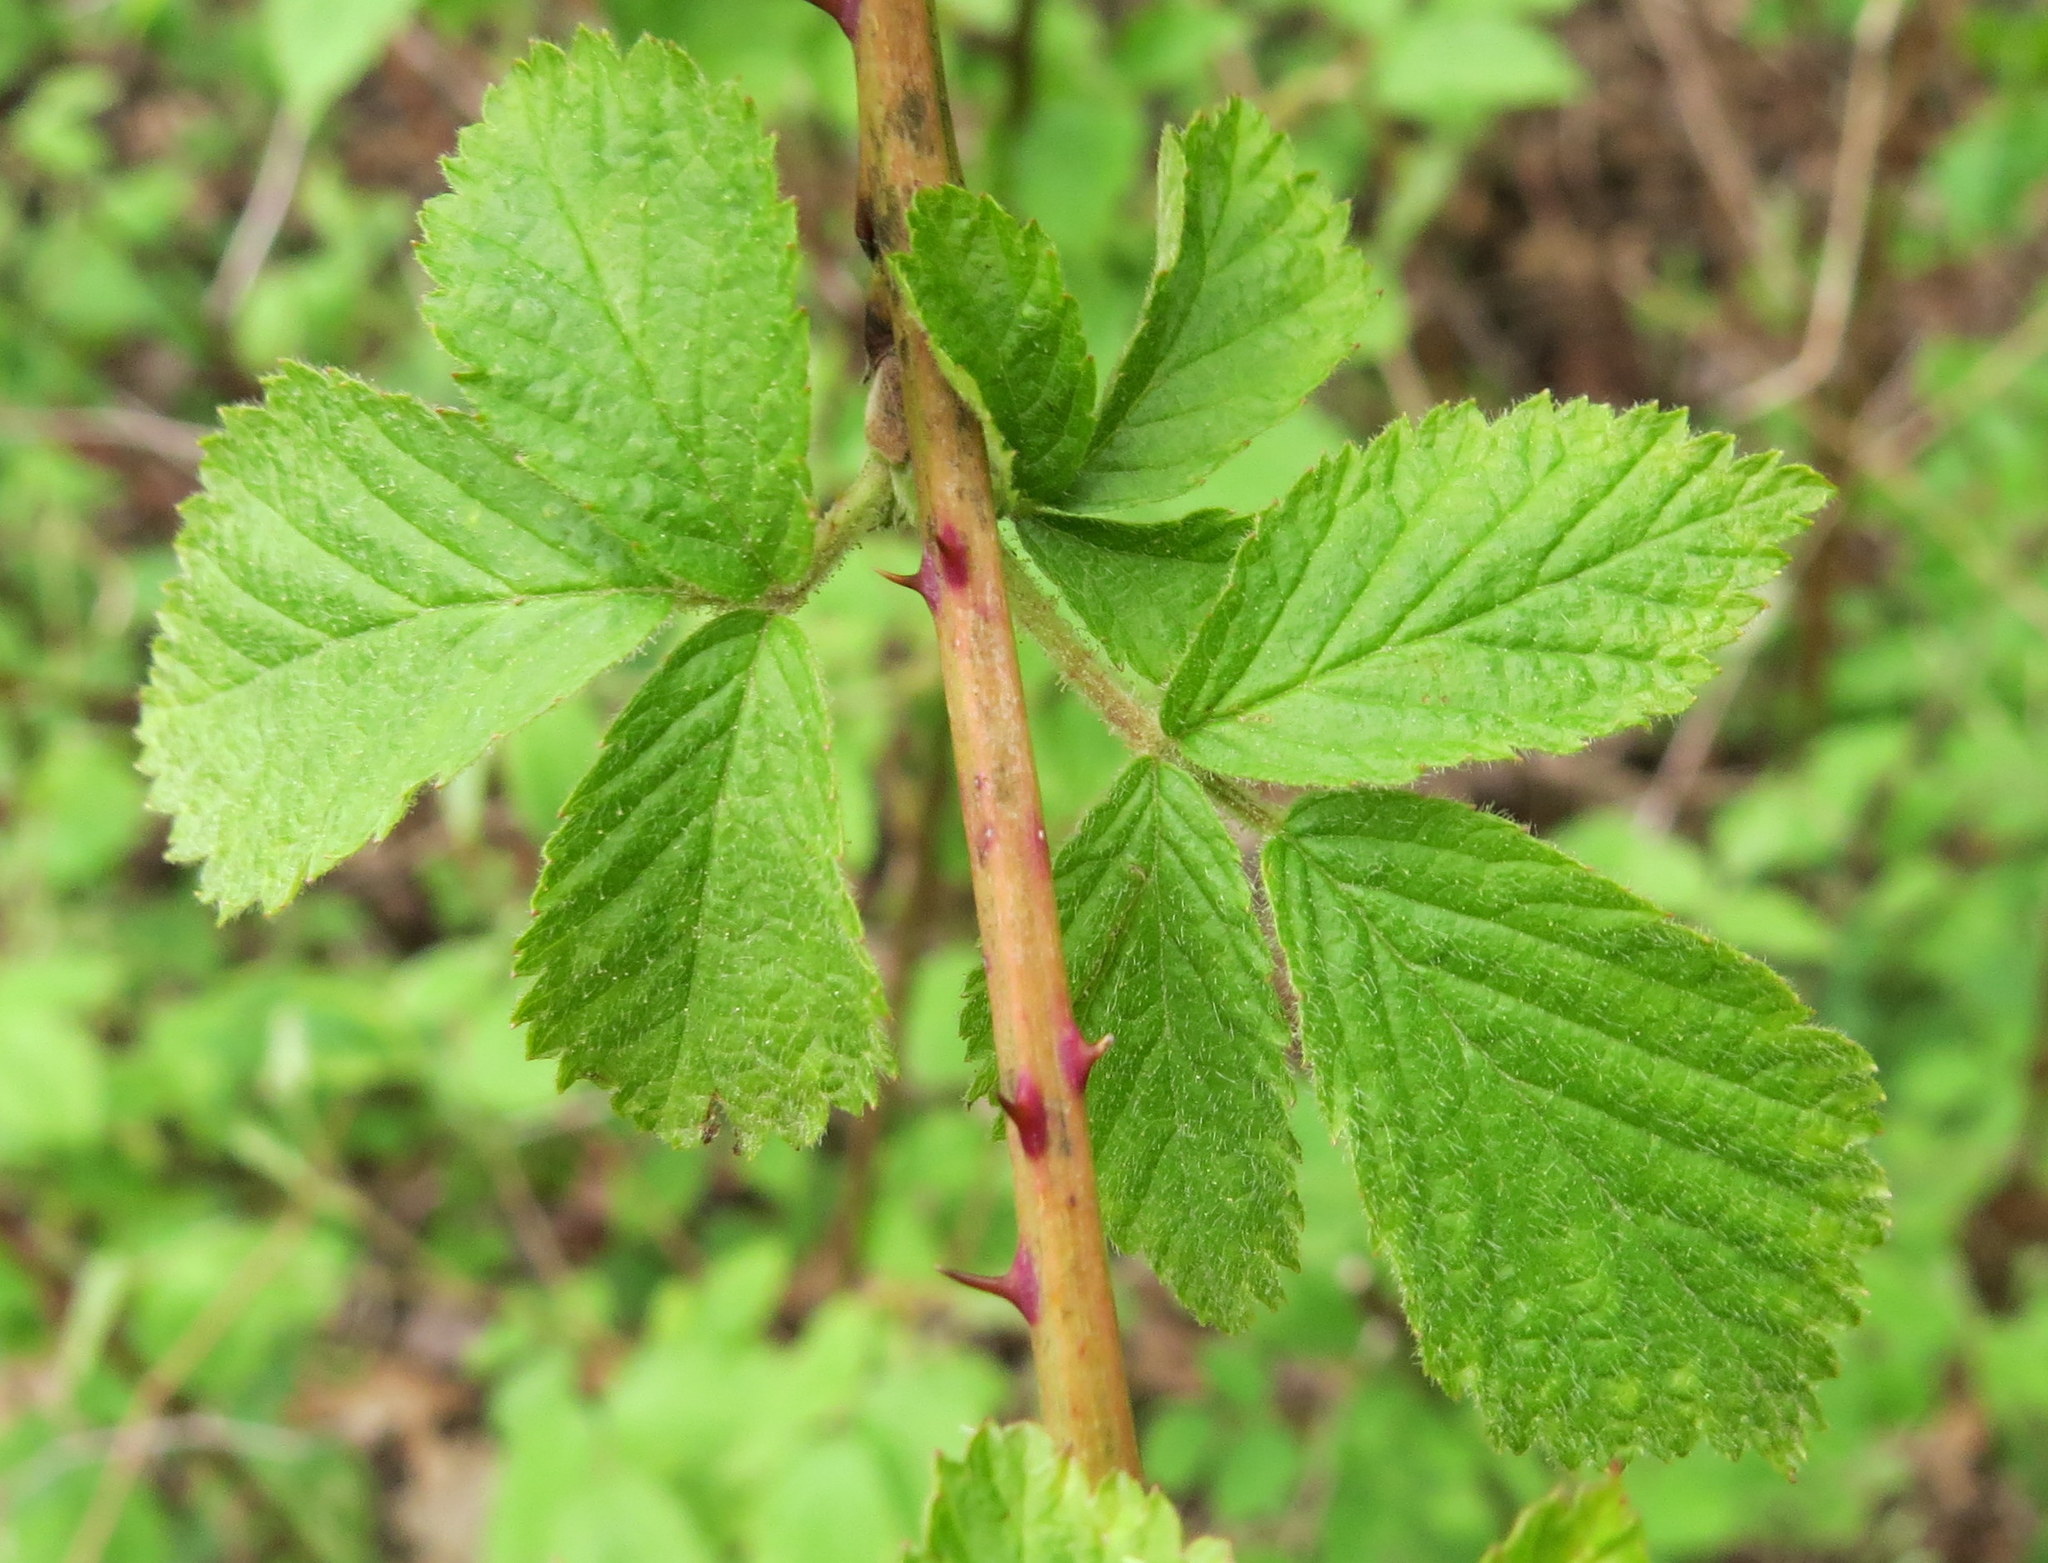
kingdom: Plantae
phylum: Tracheophyta
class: Magnoliopsida
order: Rosales
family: Rosaceae
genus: Rubus
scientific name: Rubus allegheniensis
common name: Allegheny blackberry
